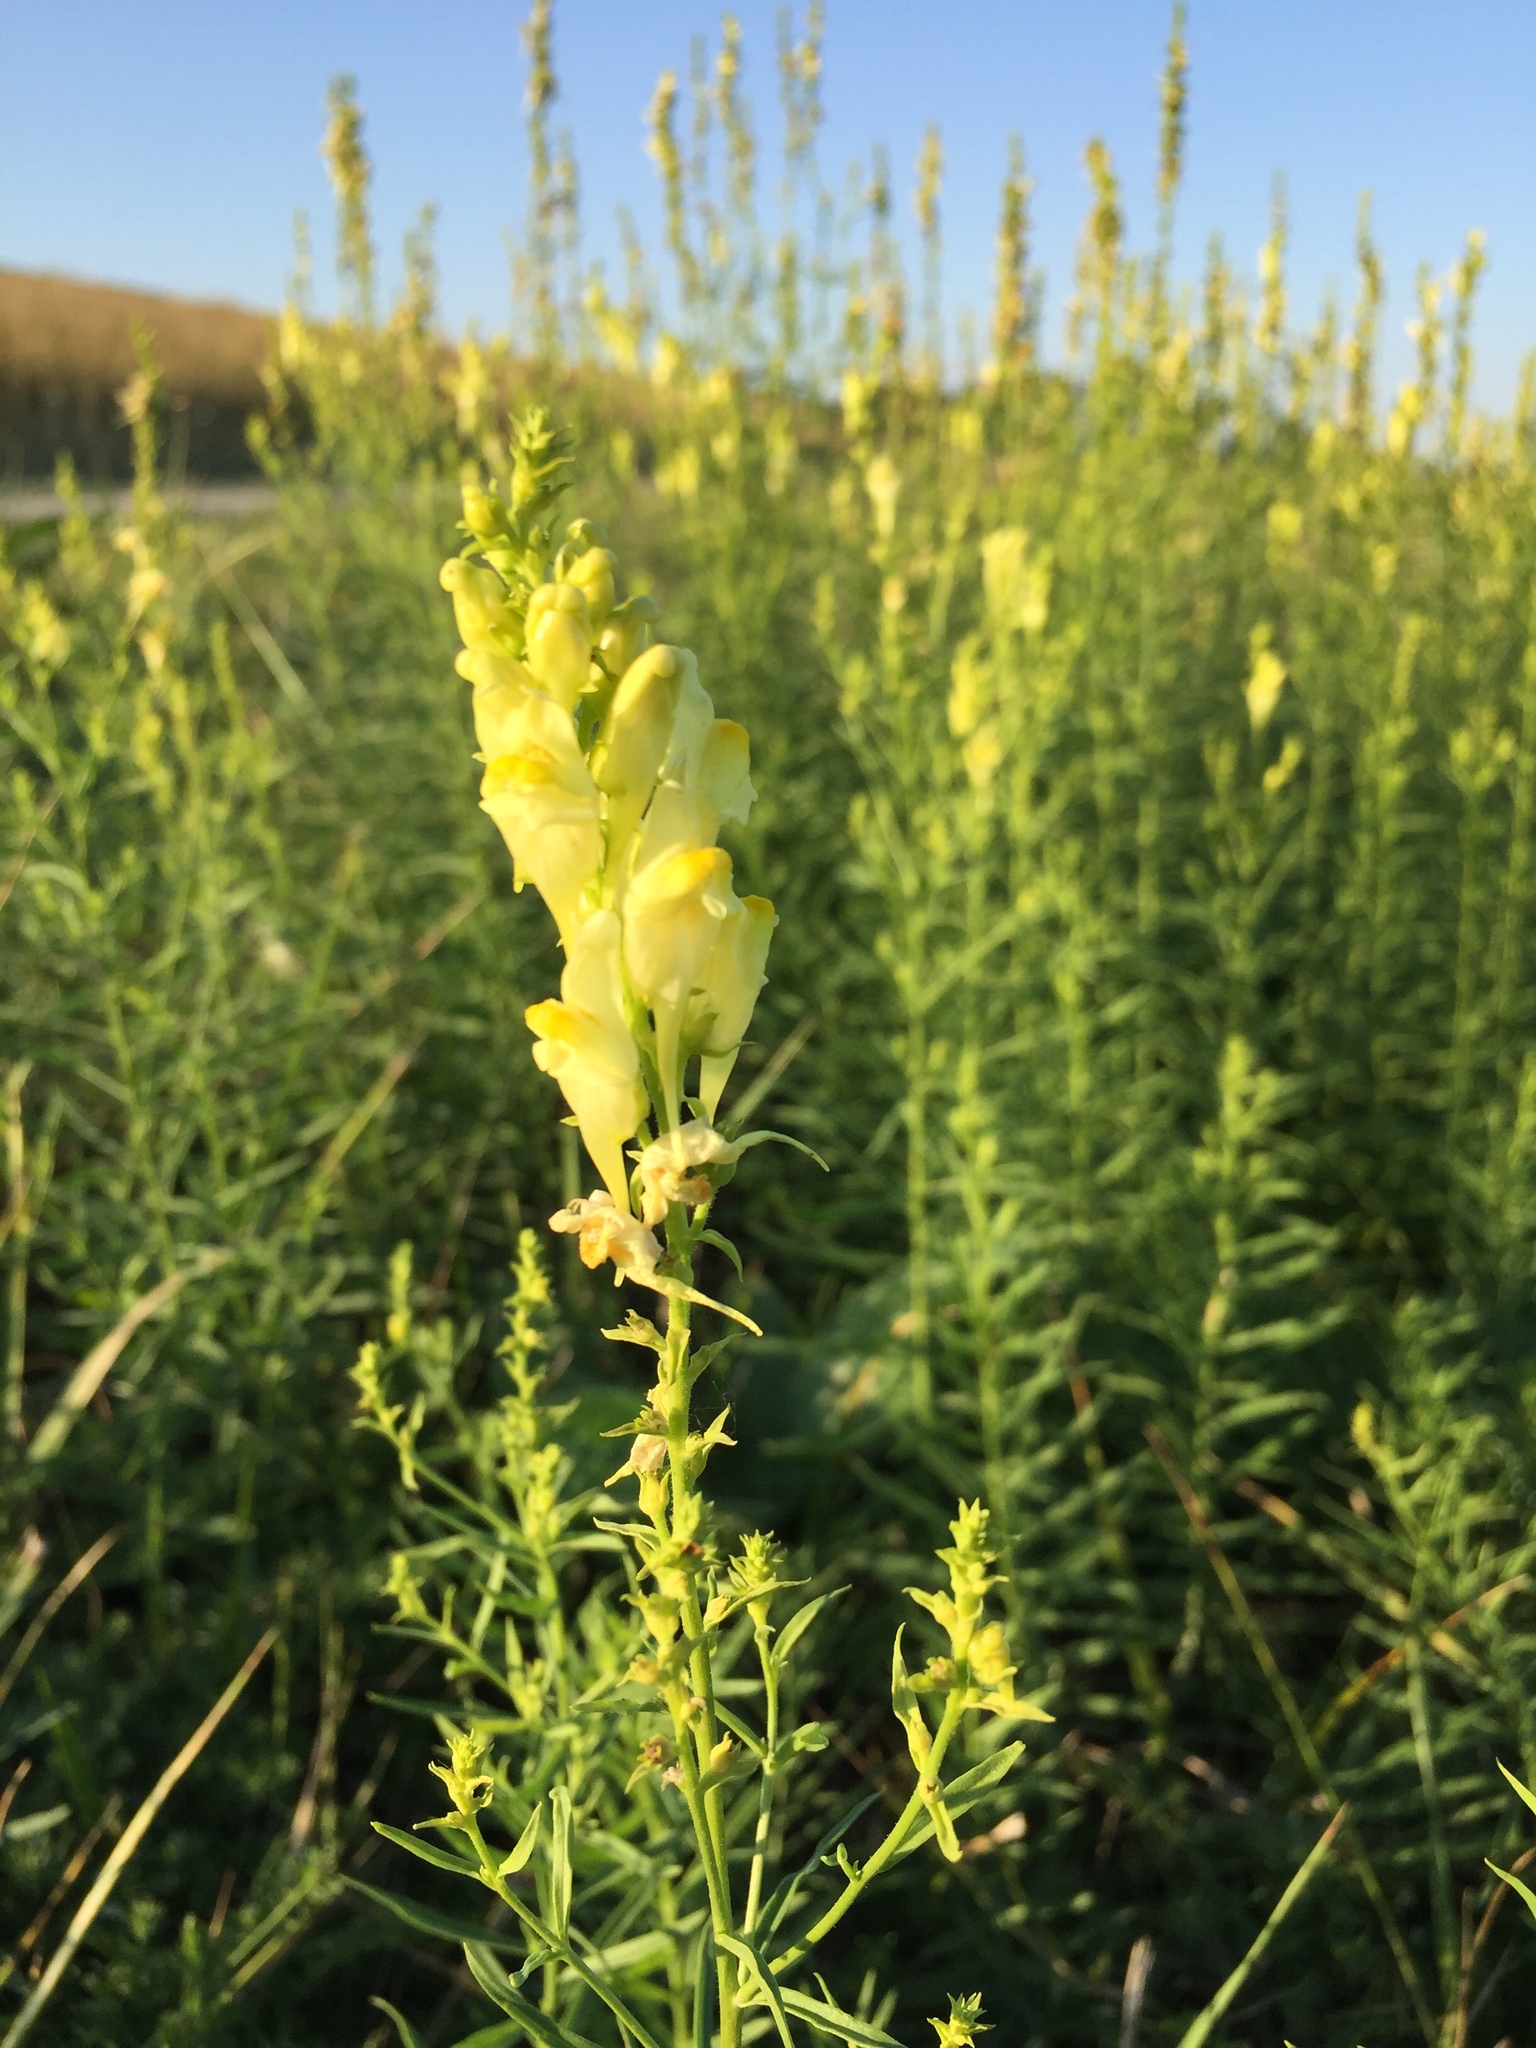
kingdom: Plantae
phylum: Tracheophyta
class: Magnoliopsida
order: Lamiales
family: Plantaginaceae
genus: Linaria
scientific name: Linaria vulgaris
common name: Butter and eggs
